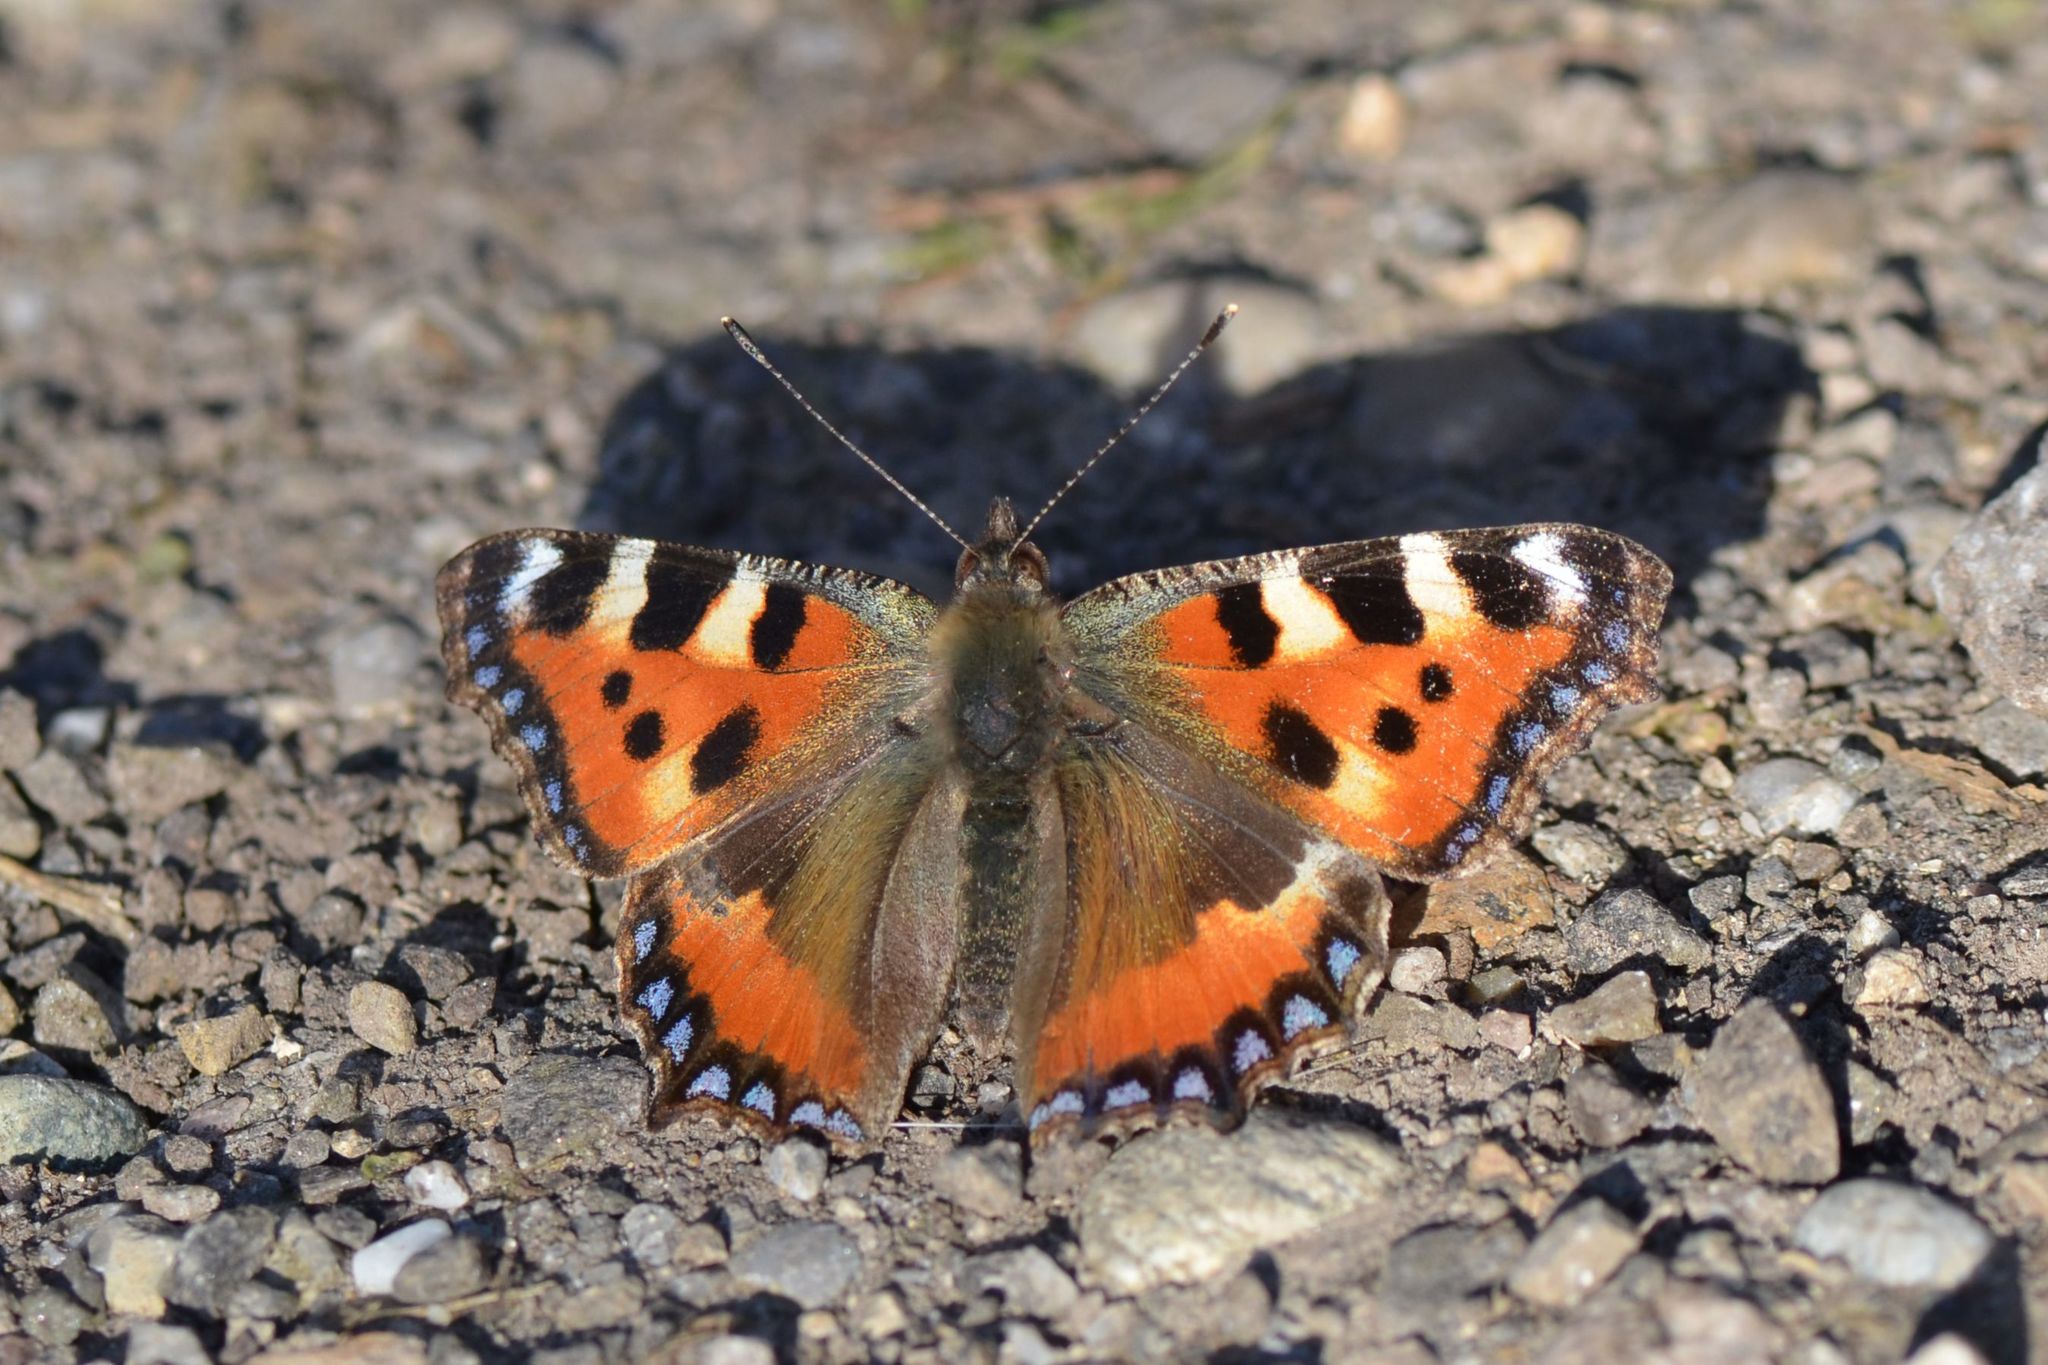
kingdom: Animalia
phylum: Arthropoda
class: Insecta
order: Lepidoptera
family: Nymphalidae
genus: Aglais
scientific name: Aglais urticae
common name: Small tortoiseshell
